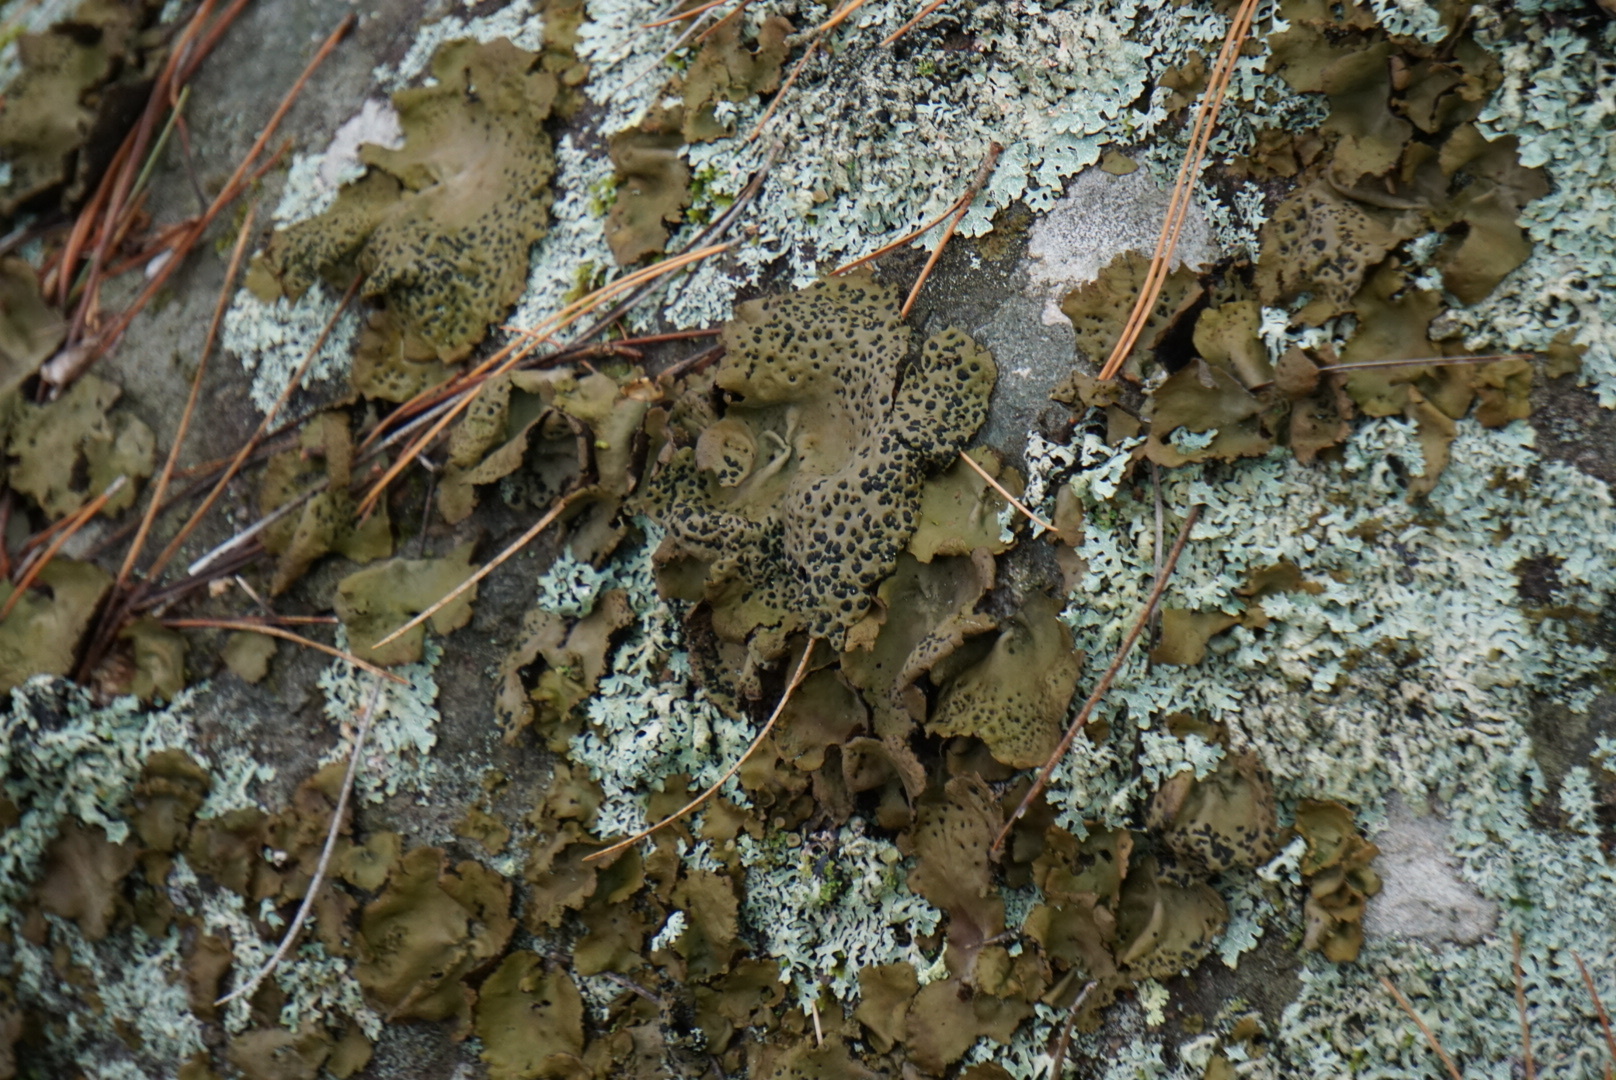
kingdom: Fungi
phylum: Ascomycota
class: Lecanoromycetes
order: Umbilicariales
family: Umbilicariaceae
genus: Umbilicaria
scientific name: Umbilicaria muhlenbergii
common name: Lesser rocktripe
